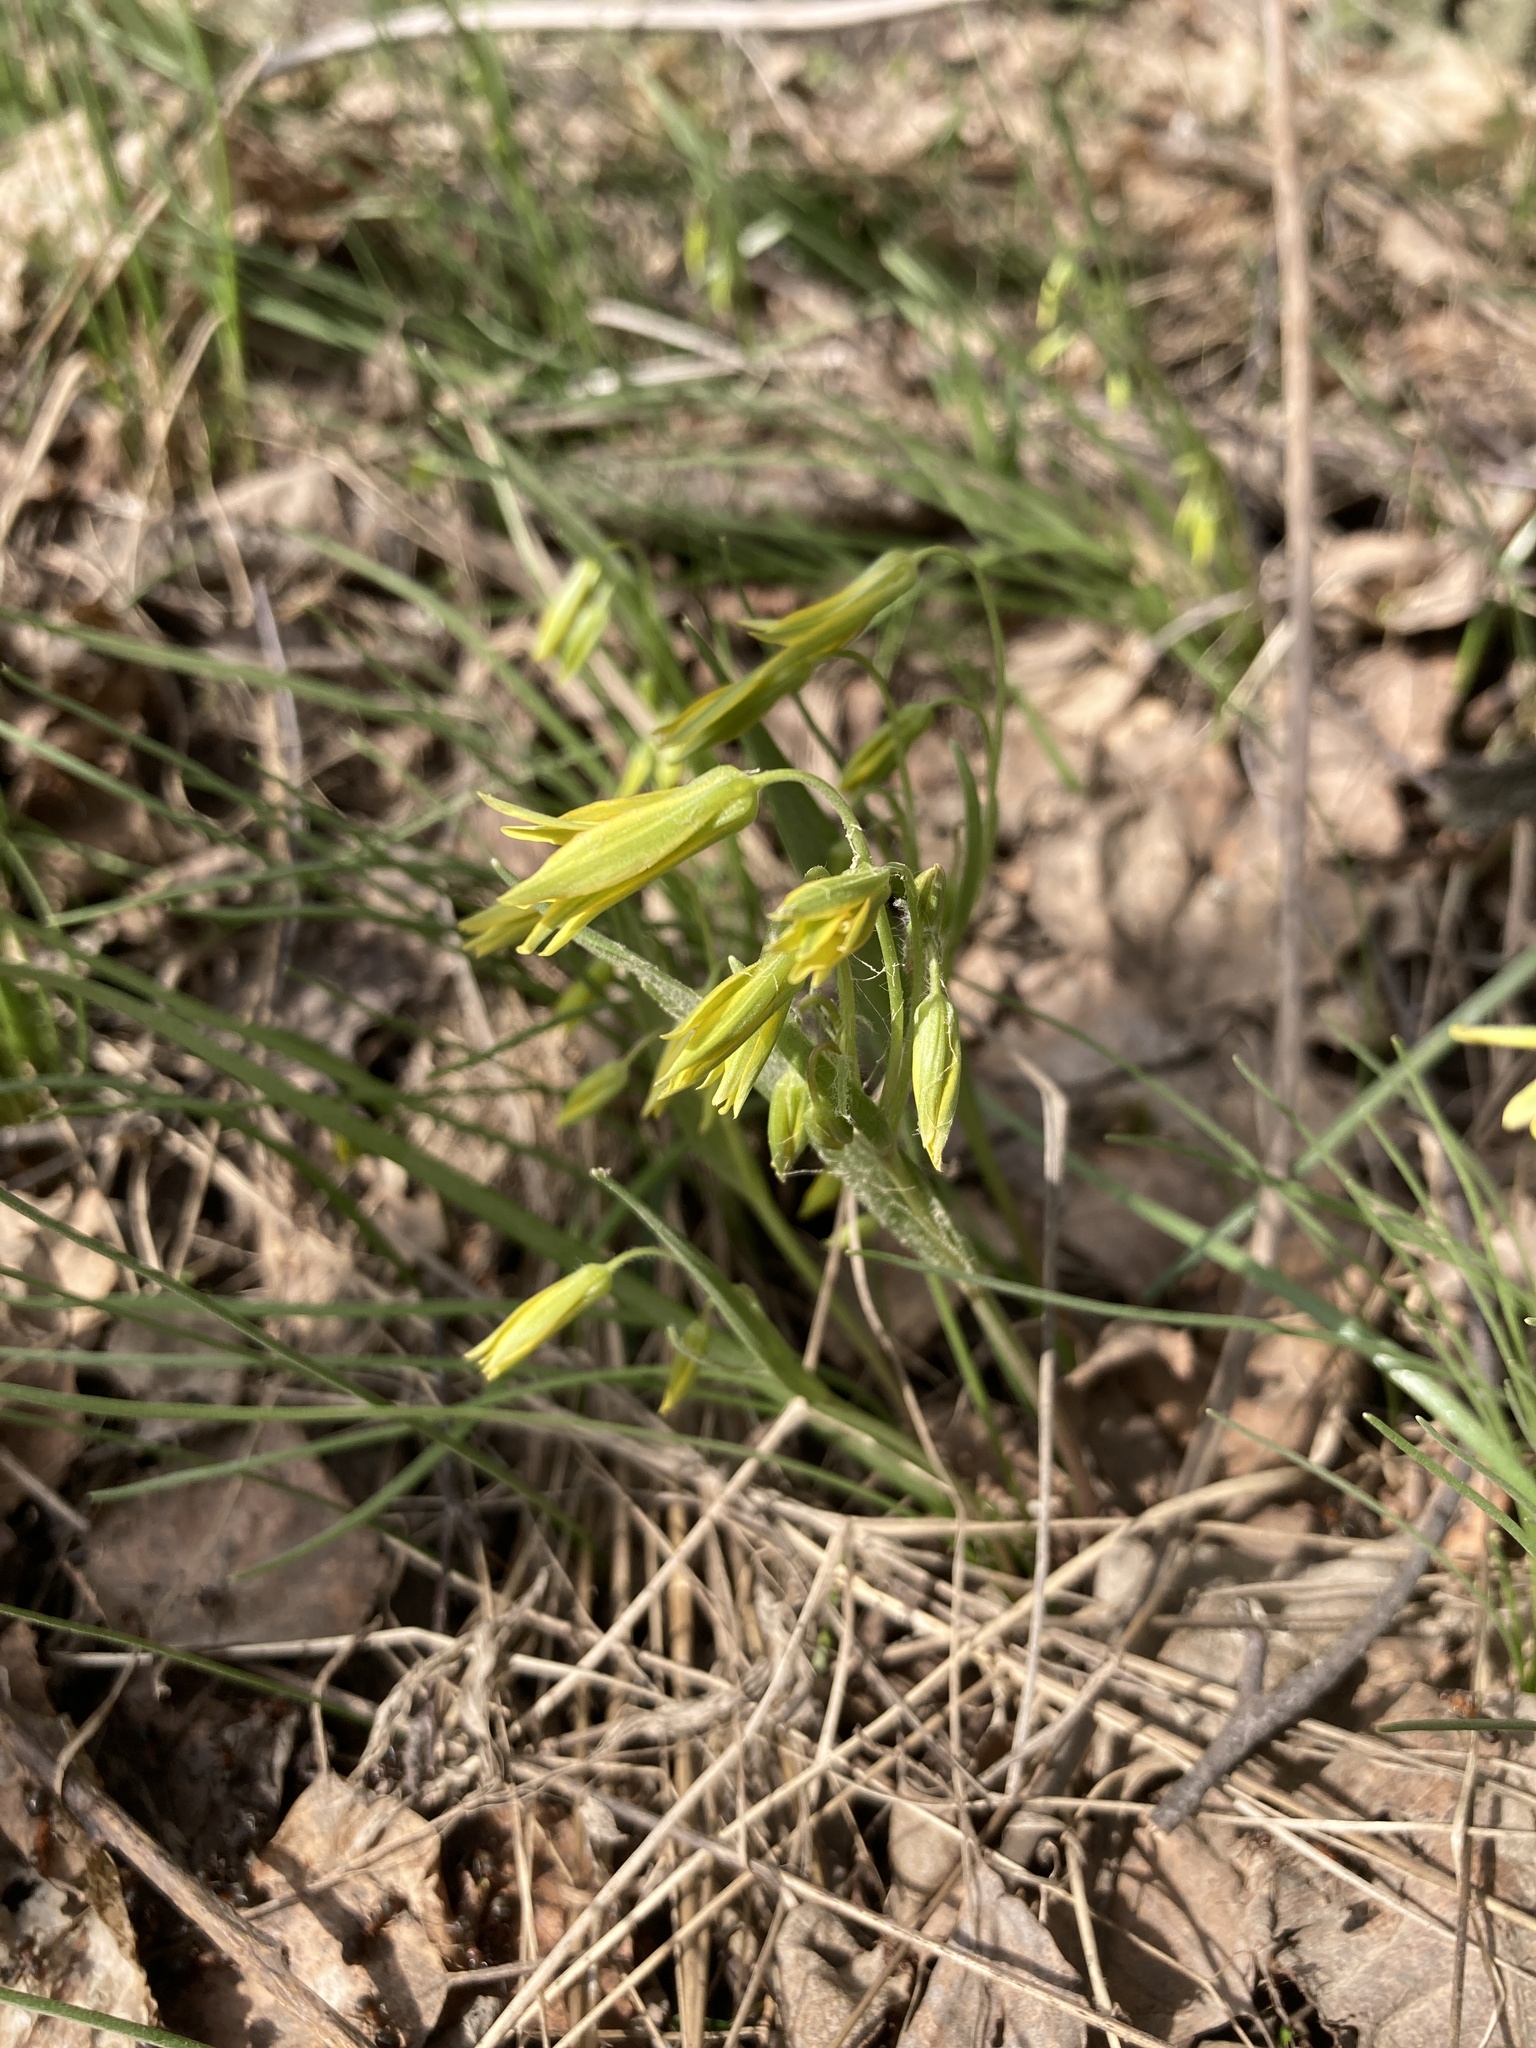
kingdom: Plantae
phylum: Tracheophyta
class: Liliopsida
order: Liliales
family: Liliaceae
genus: Gagea
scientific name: Gagea minima
